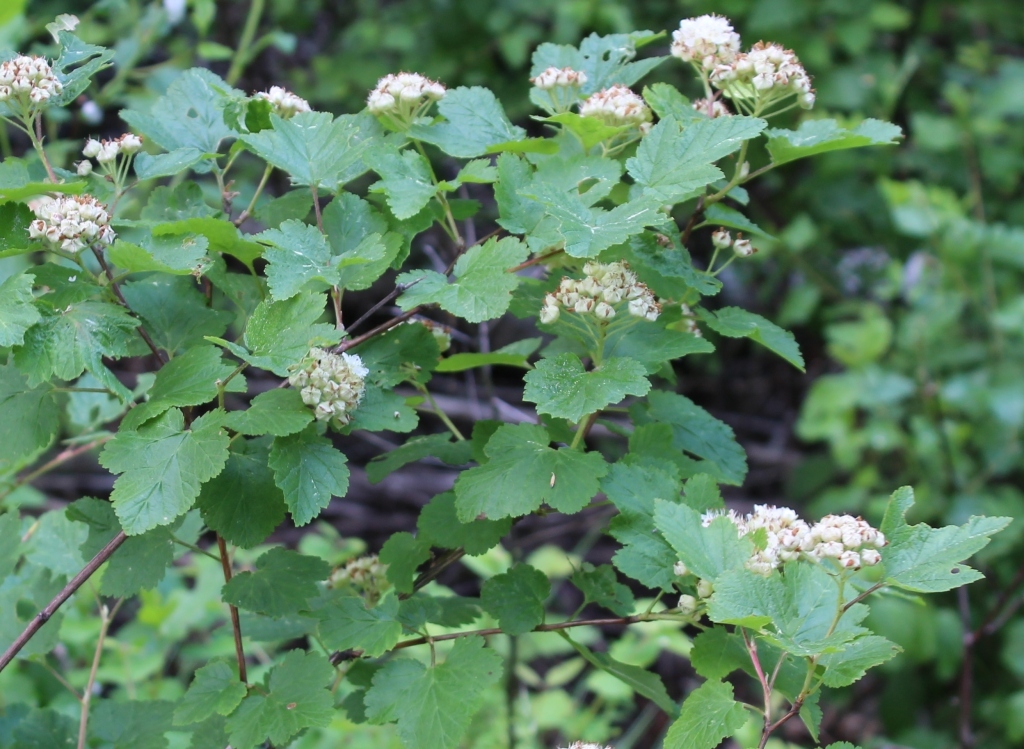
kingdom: Plantae
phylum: Tracheophyta
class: Magnoliopsida
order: Rosales
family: Rosaceae
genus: Physocarpus
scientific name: Physocarpus malvaceus
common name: Mallow ninebark
